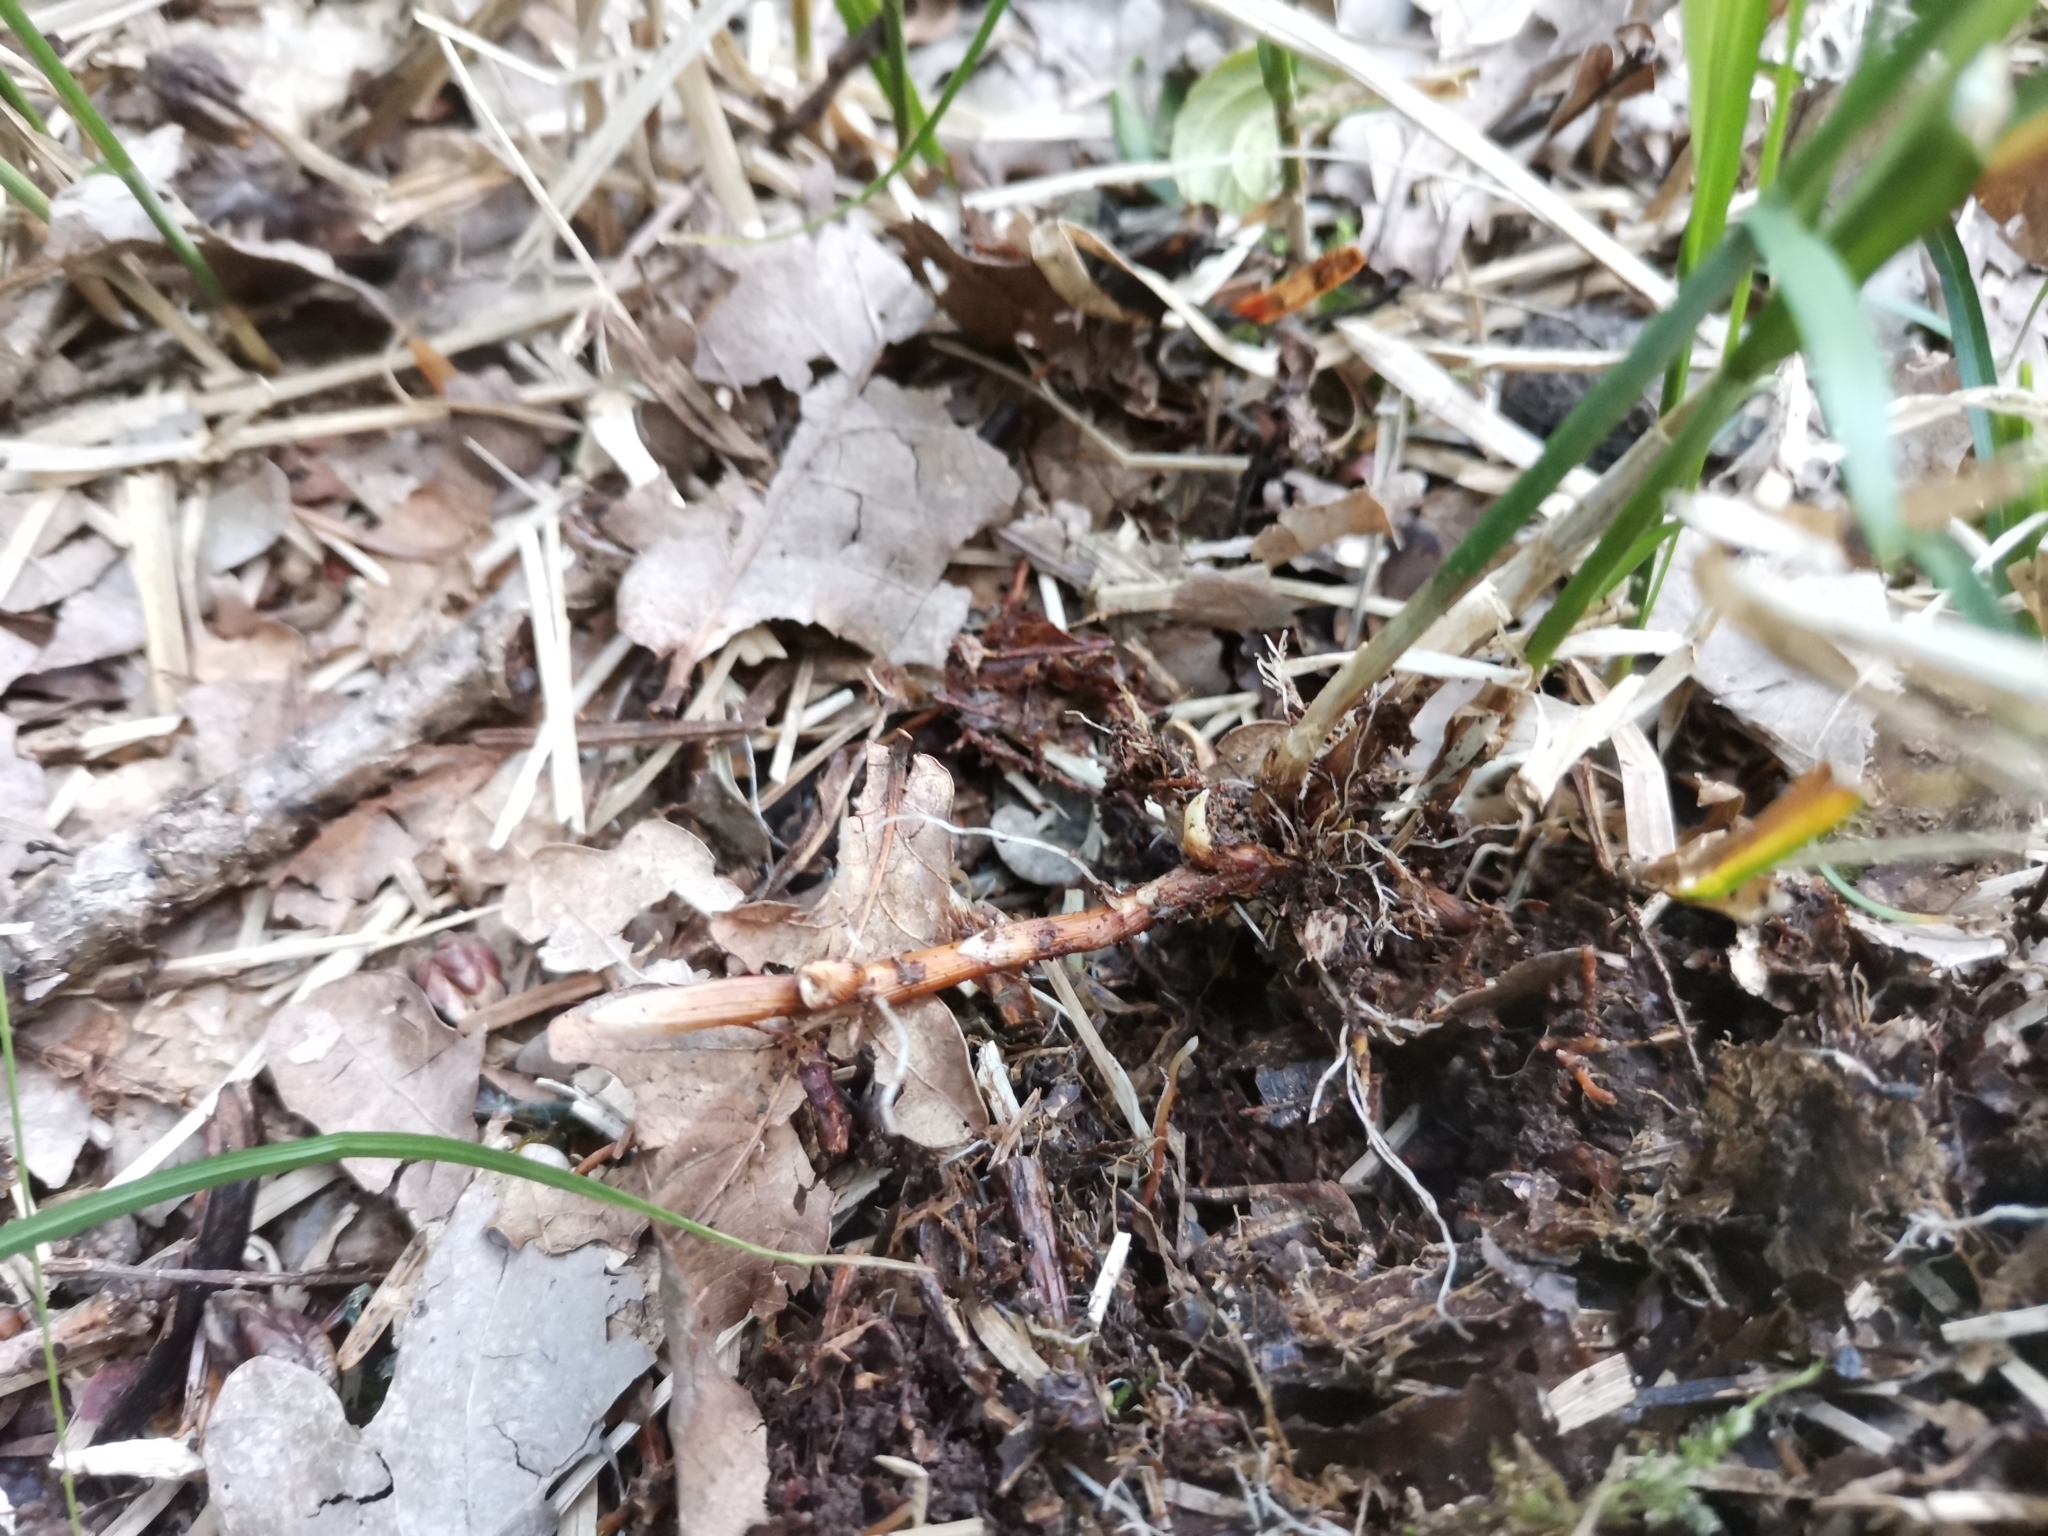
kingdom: Plantae
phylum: Tracheophyta
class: Liliopsida
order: Poales
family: Cyperaceae
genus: Carex
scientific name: Carex brizoides
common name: Quaking-grass sedge
